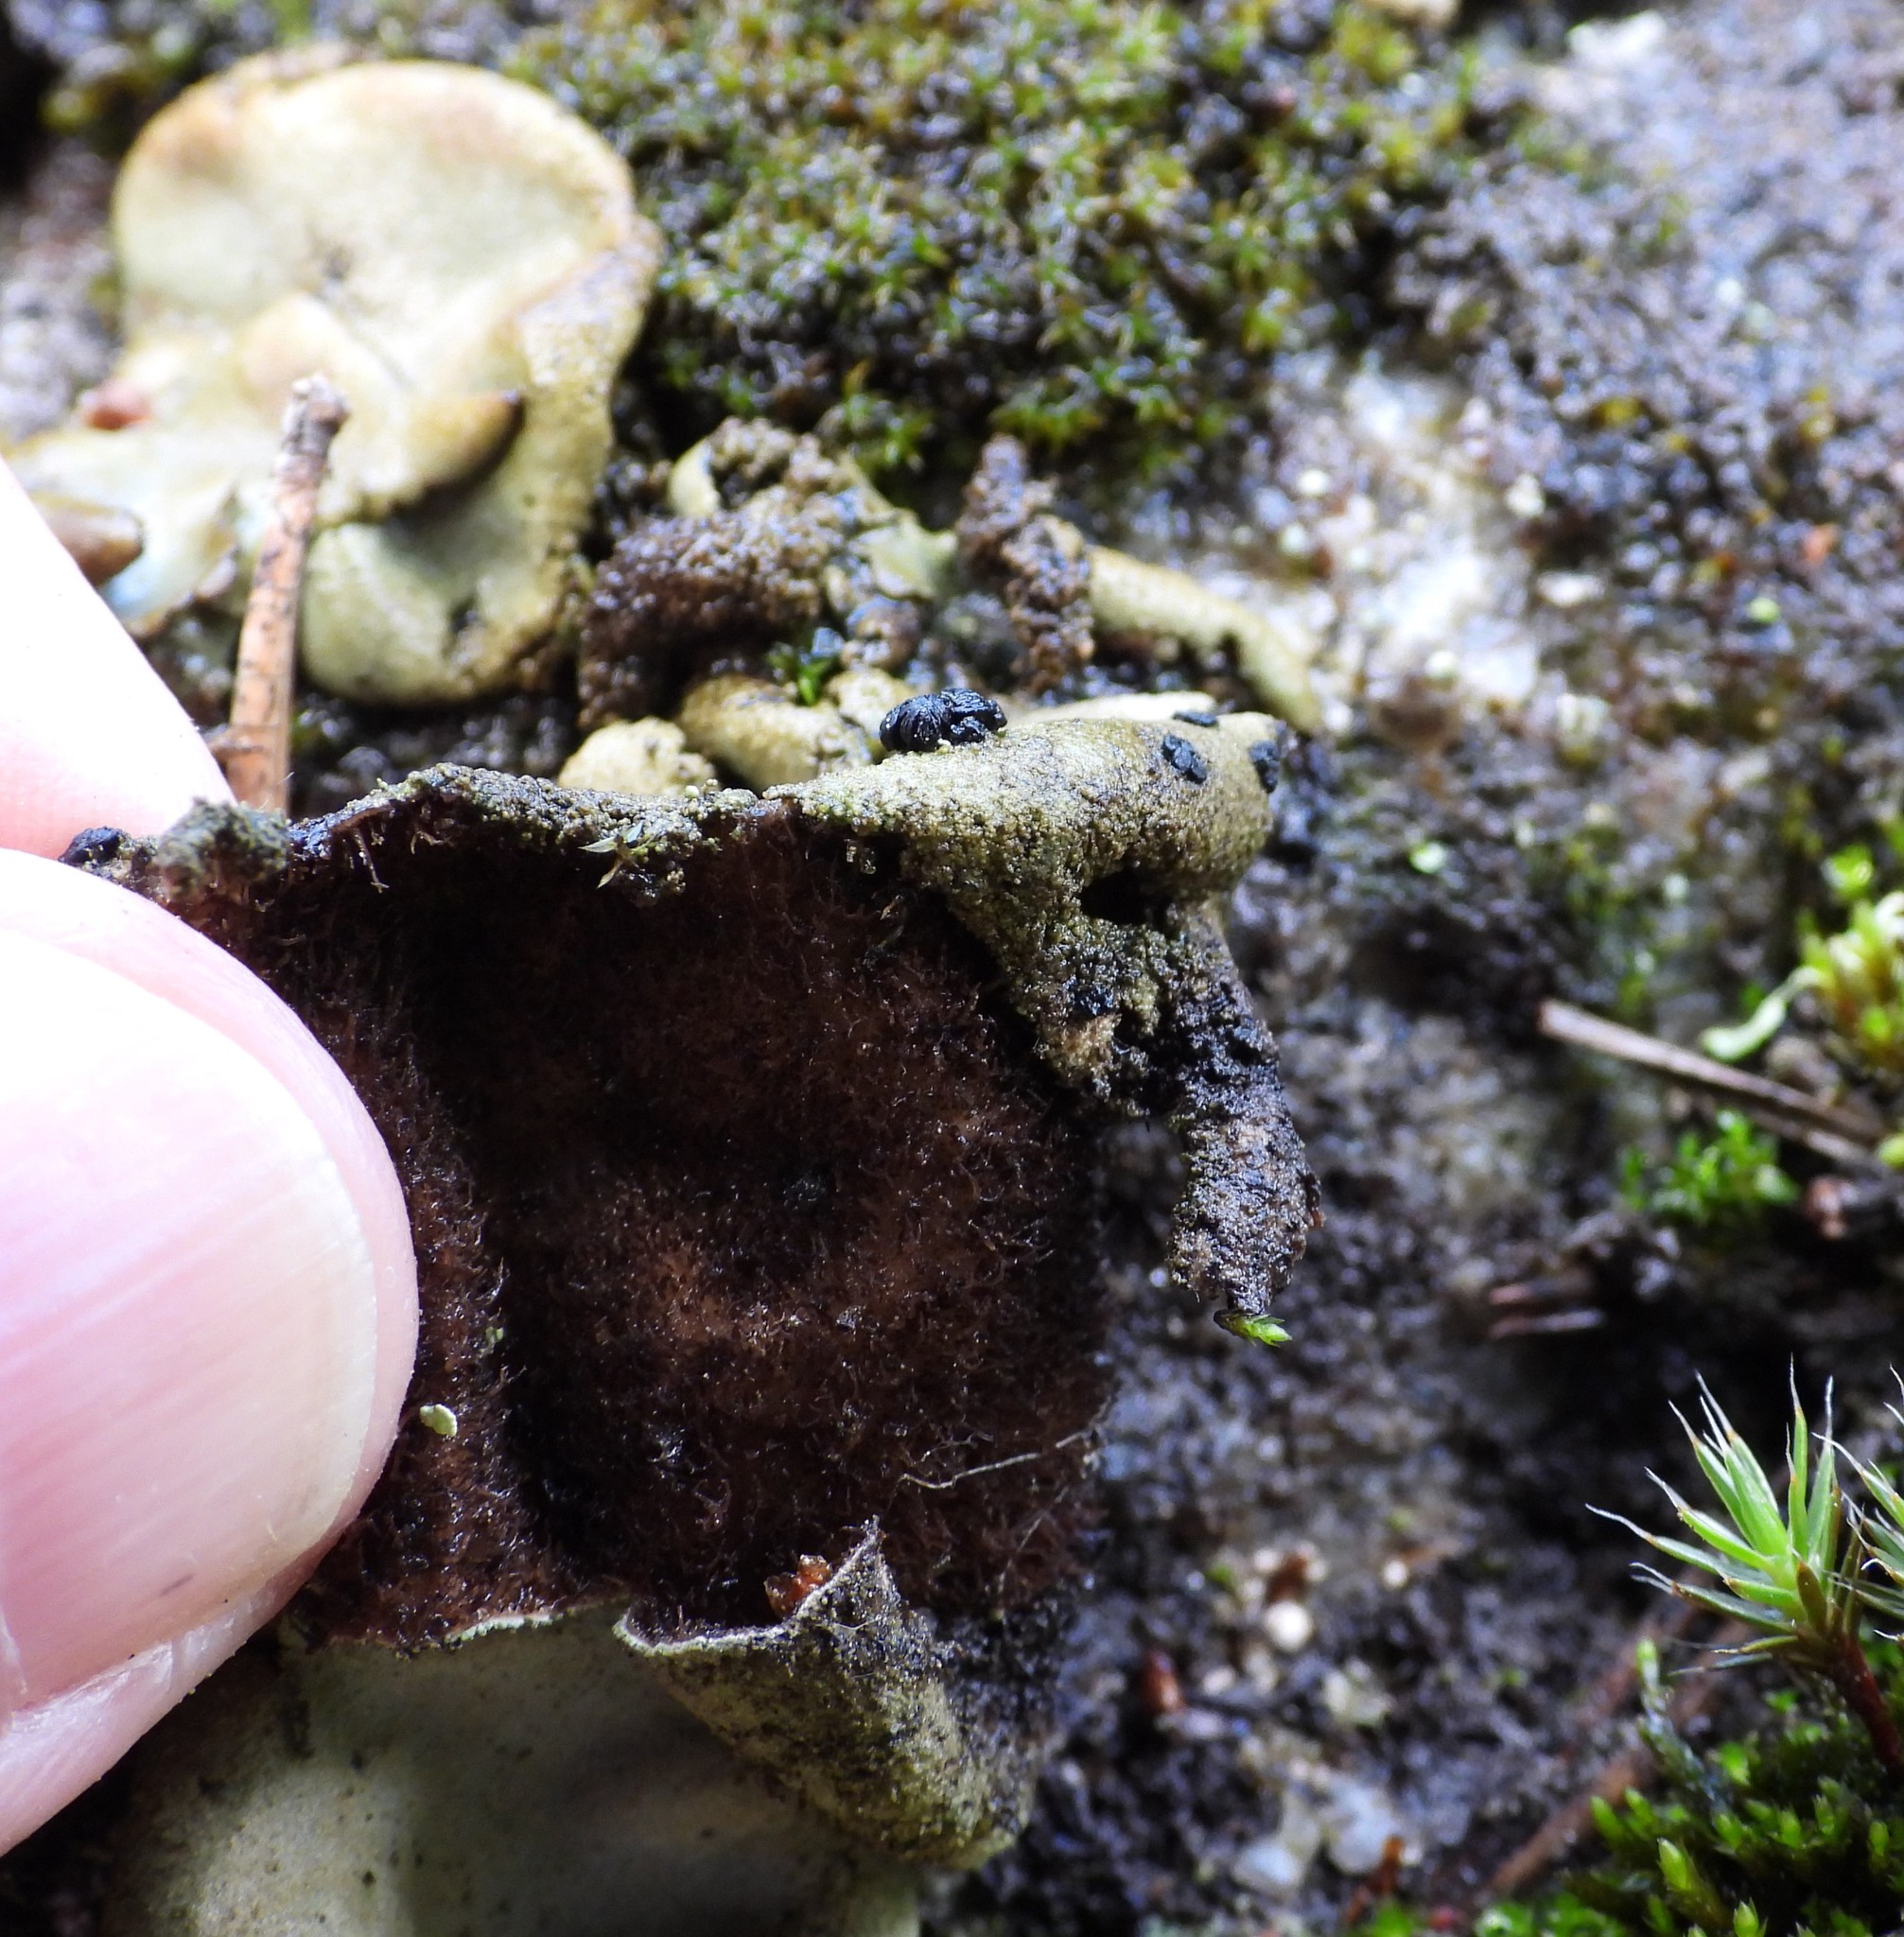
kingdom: Fungi
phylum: Ascomycota
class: Lecanoromycetes
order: Umbilicariales
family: Umbilicariaceae
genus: Umbilicaria
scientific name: Umbilicaria hirsuta
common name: Granulating rocktripe lichen
